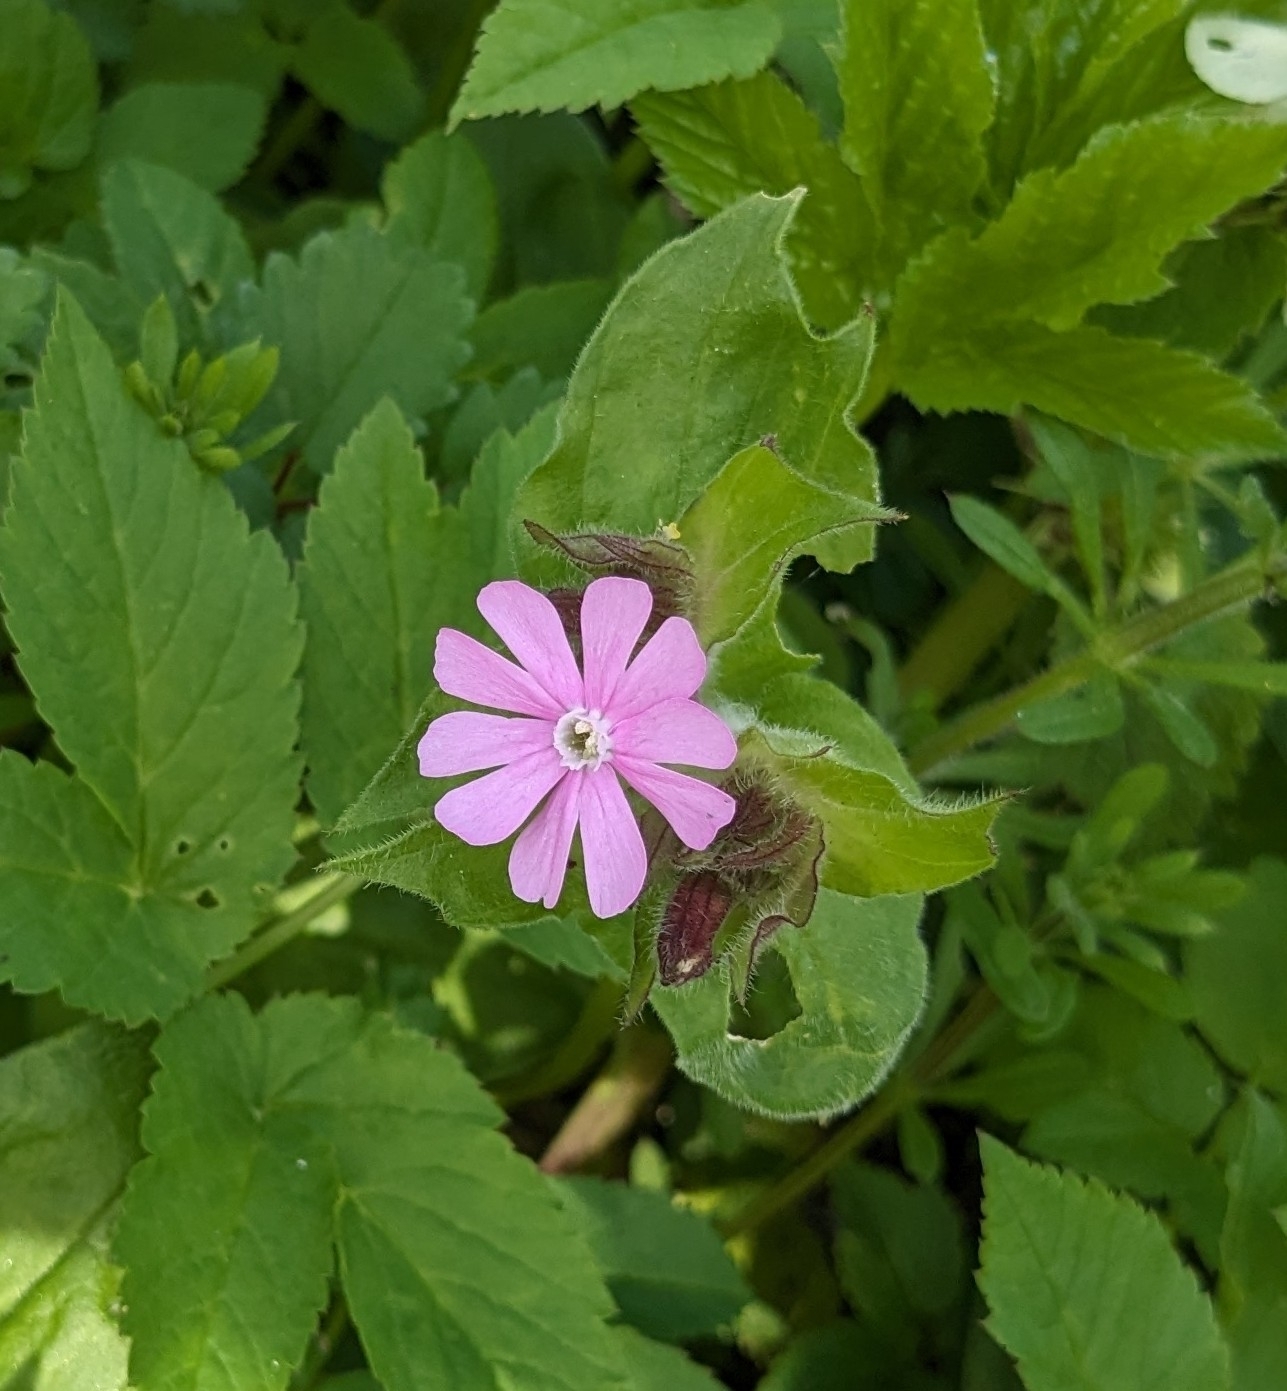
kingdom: Plantae
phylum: Tracheophyta
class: Magnoliopsida
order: Caryophyllales
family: Caryophyllaceae
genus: Silene
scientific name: Silene dioica
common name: Red campion
